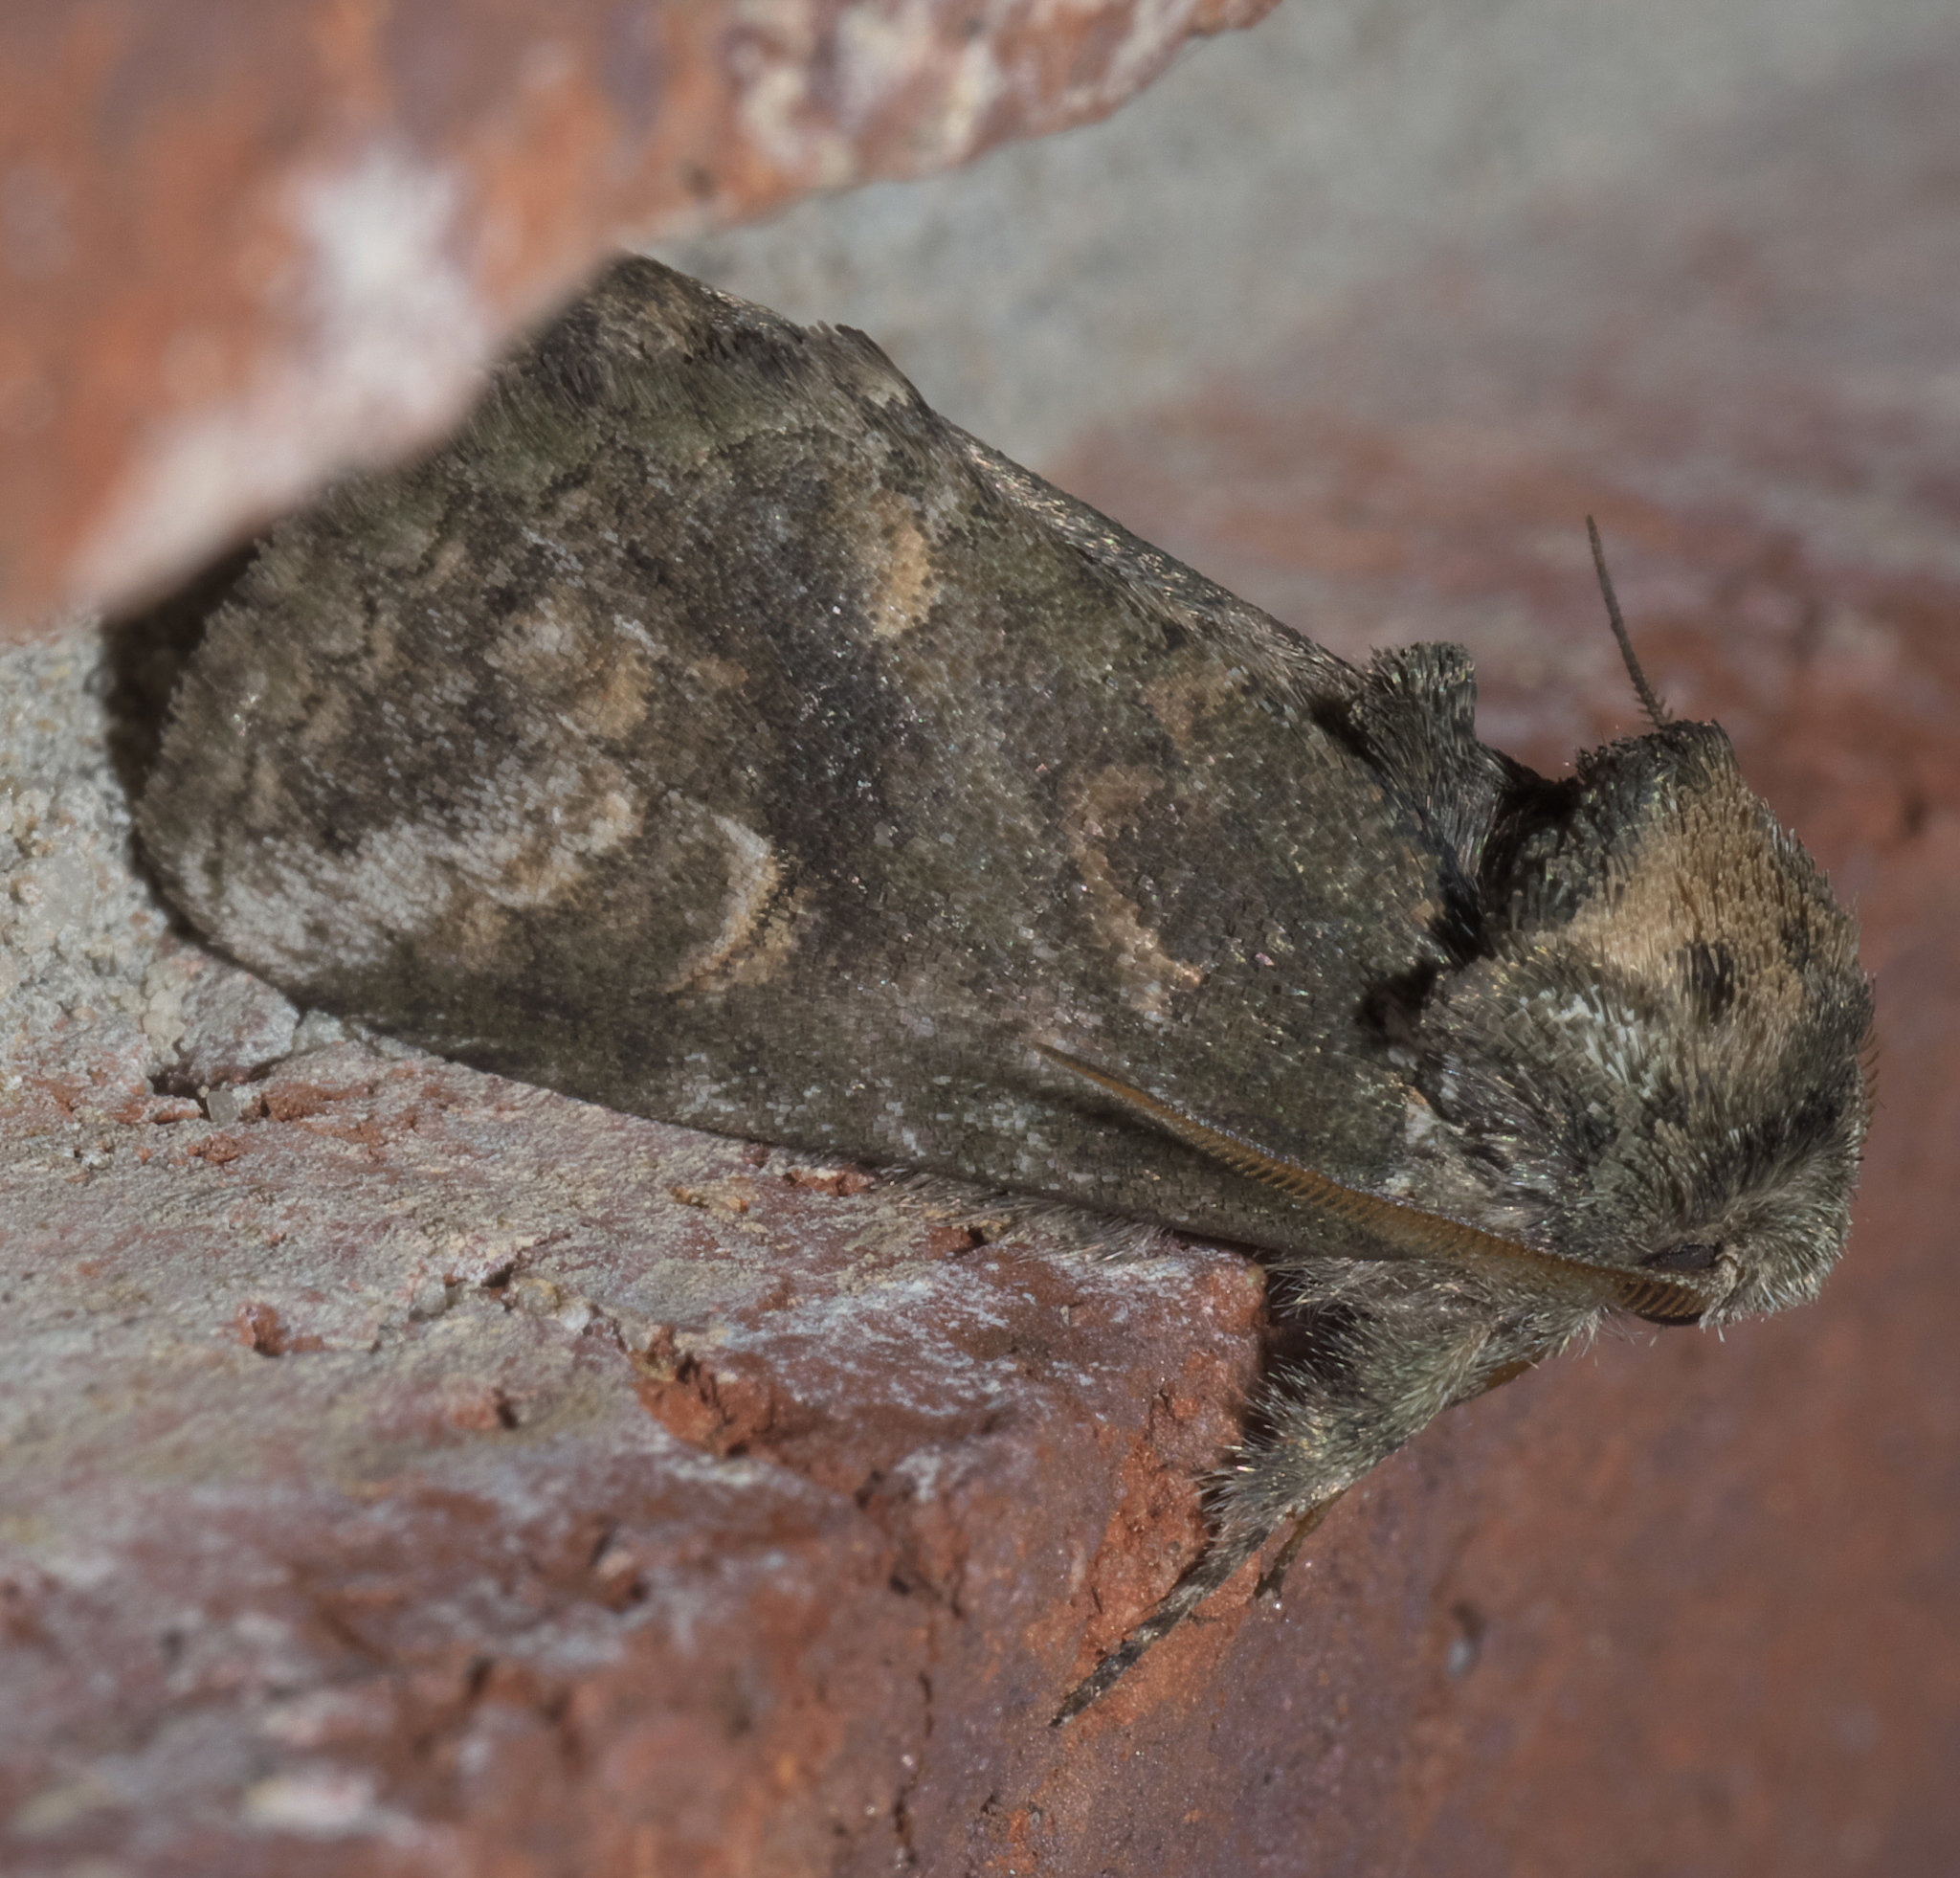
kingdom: Animalia
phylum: Arthropoda
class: Insecta
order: Lepidoptera
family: Notodontidae
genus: Rifargia
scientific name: Rifargia
